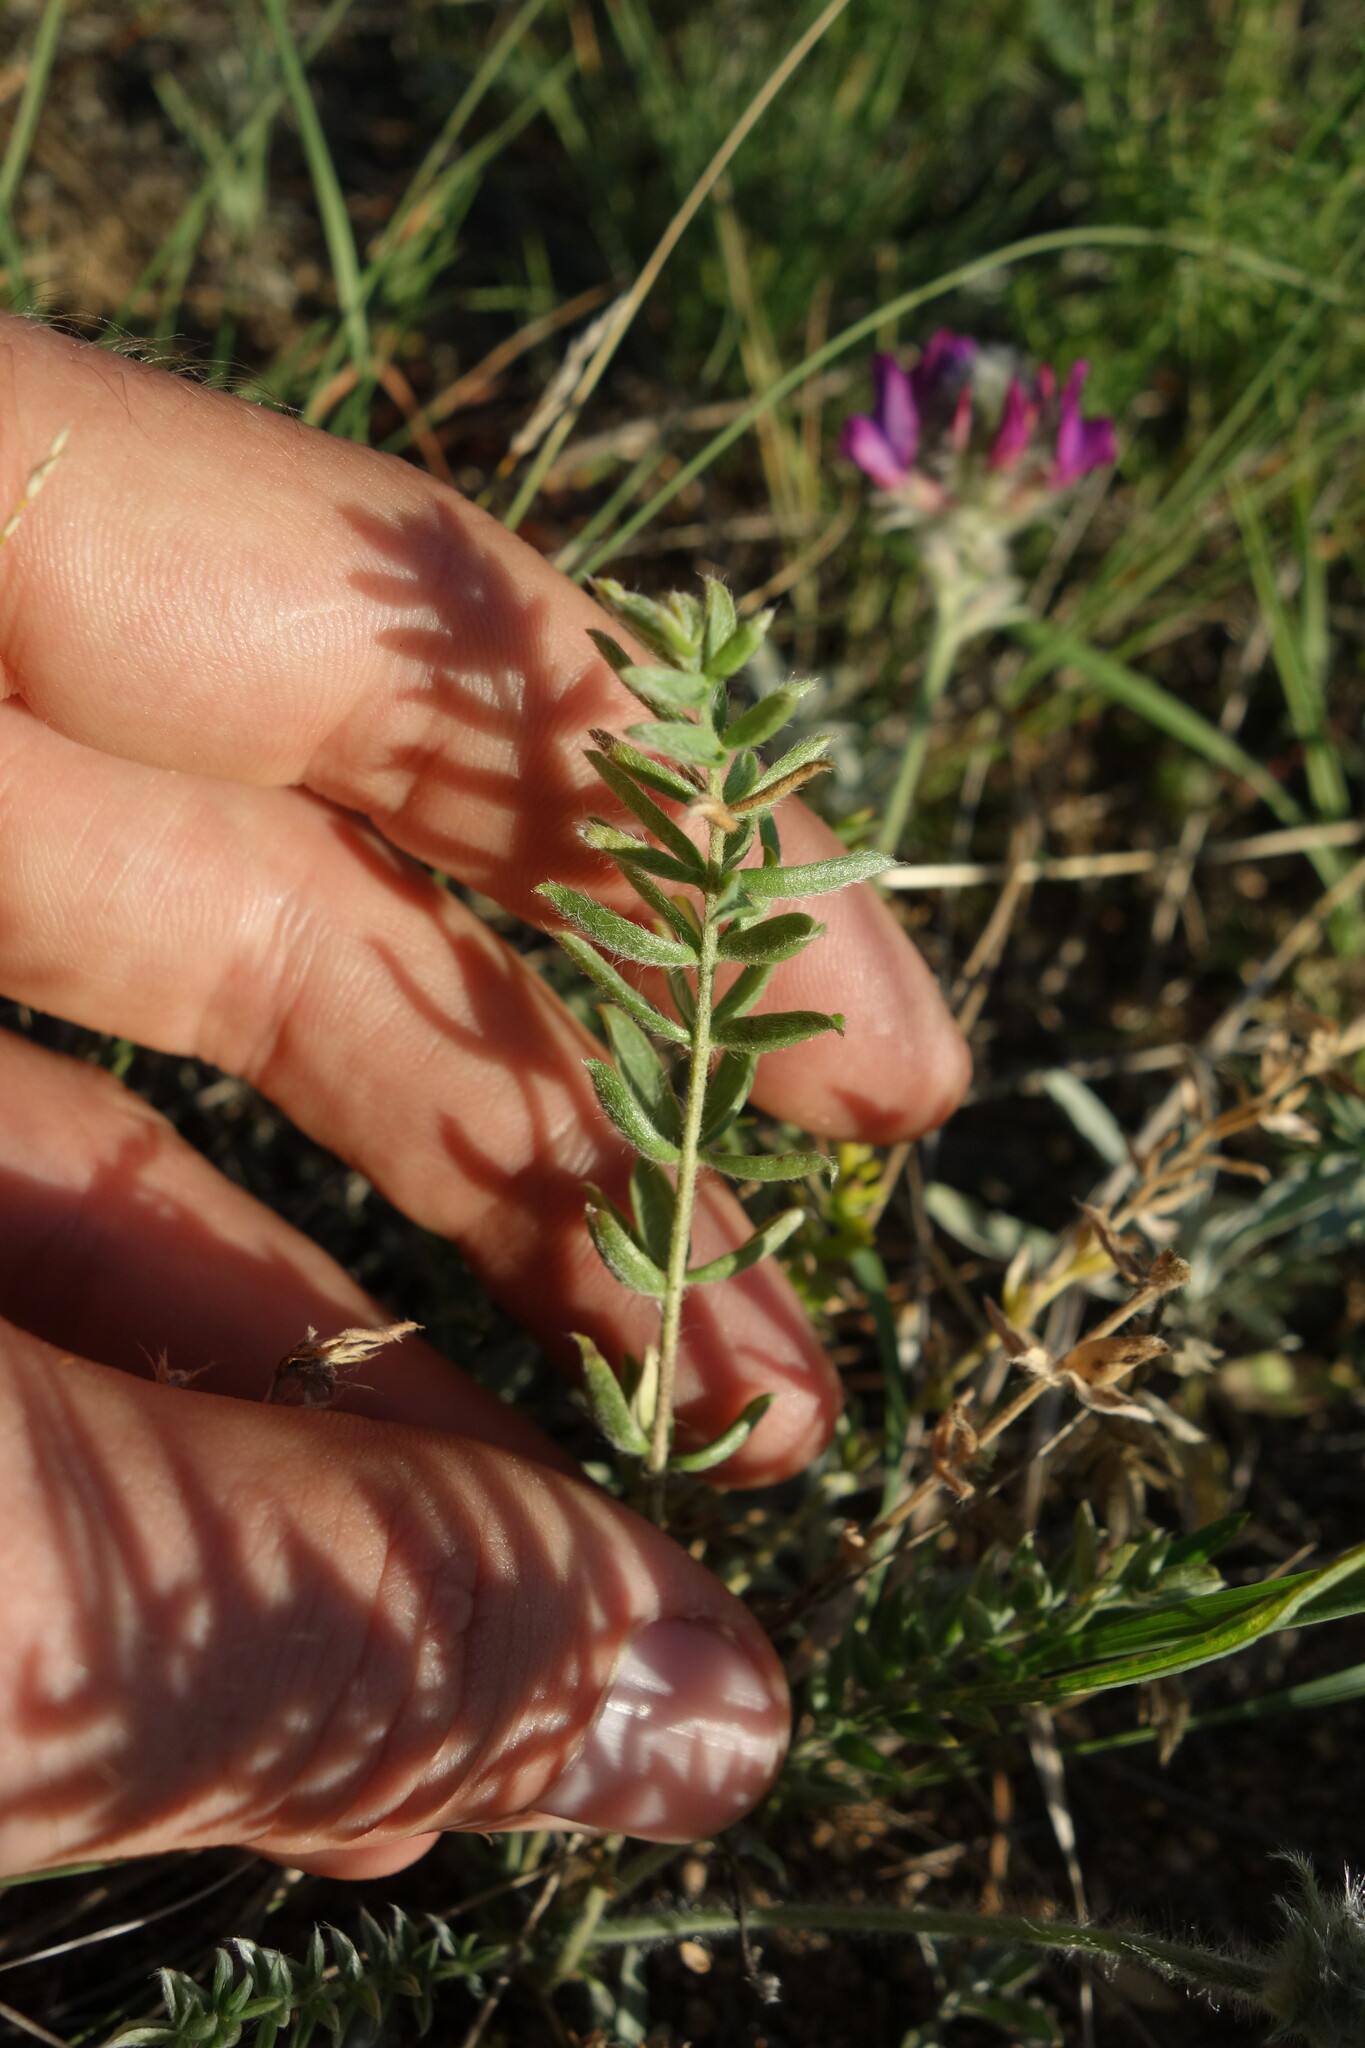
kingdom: Plantae
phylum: Tracheophyta
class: Magnoliopsida
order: Fabales
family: Fabaceae
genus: Oxytropis
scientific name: Oxytropis turczaninovii
